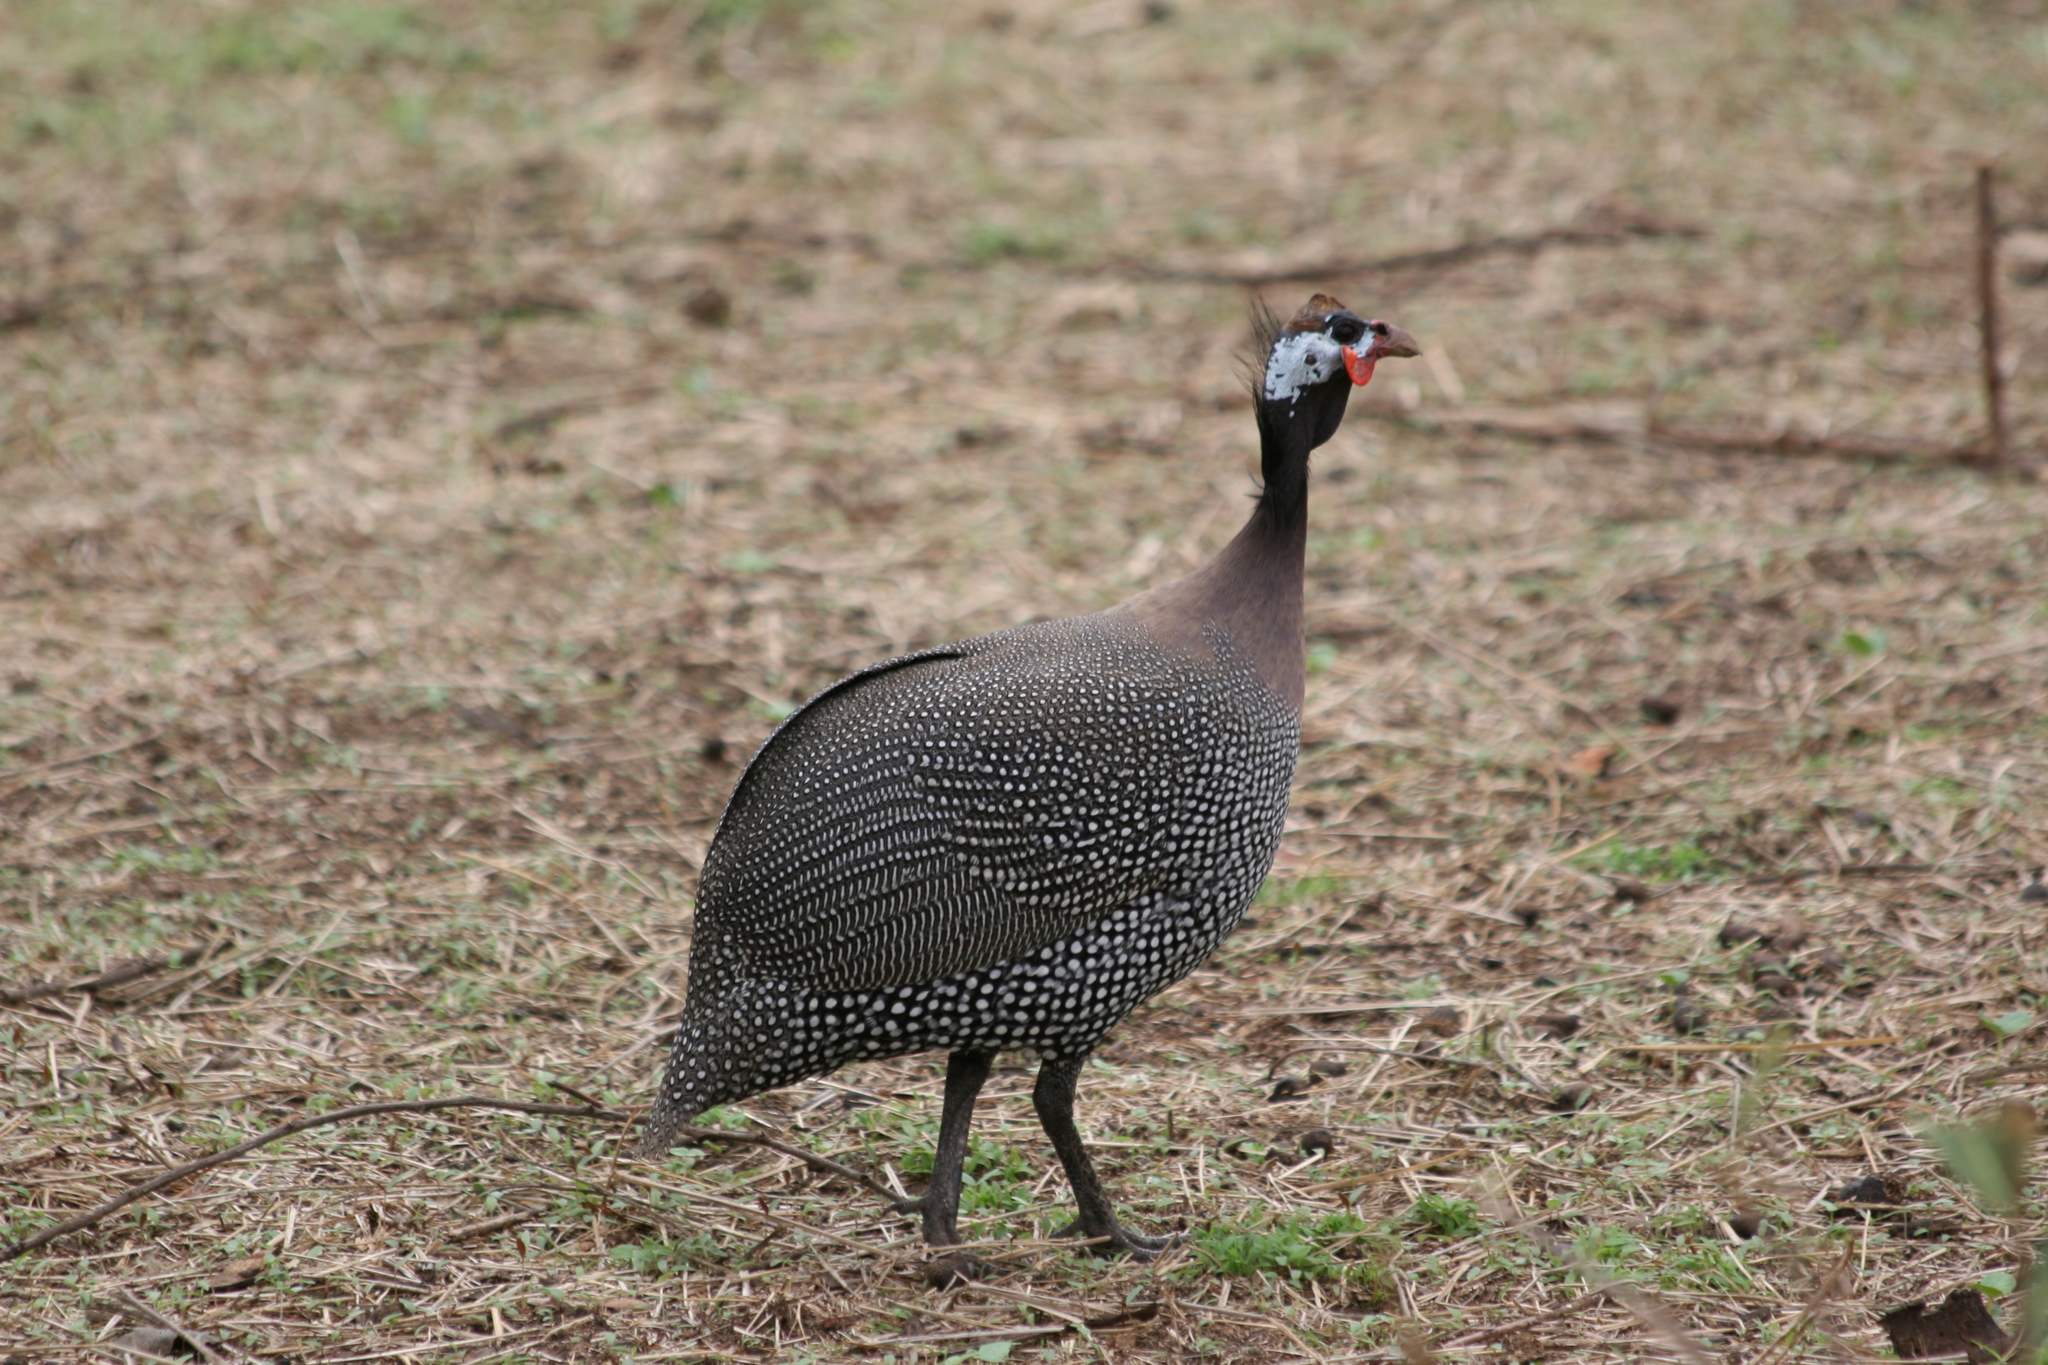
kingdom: Animalia
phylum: Chordata
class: Aves
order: Galliformes
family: Numididae
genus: Numida
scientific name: Numida meleagris
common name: Helmeted guineafowl
